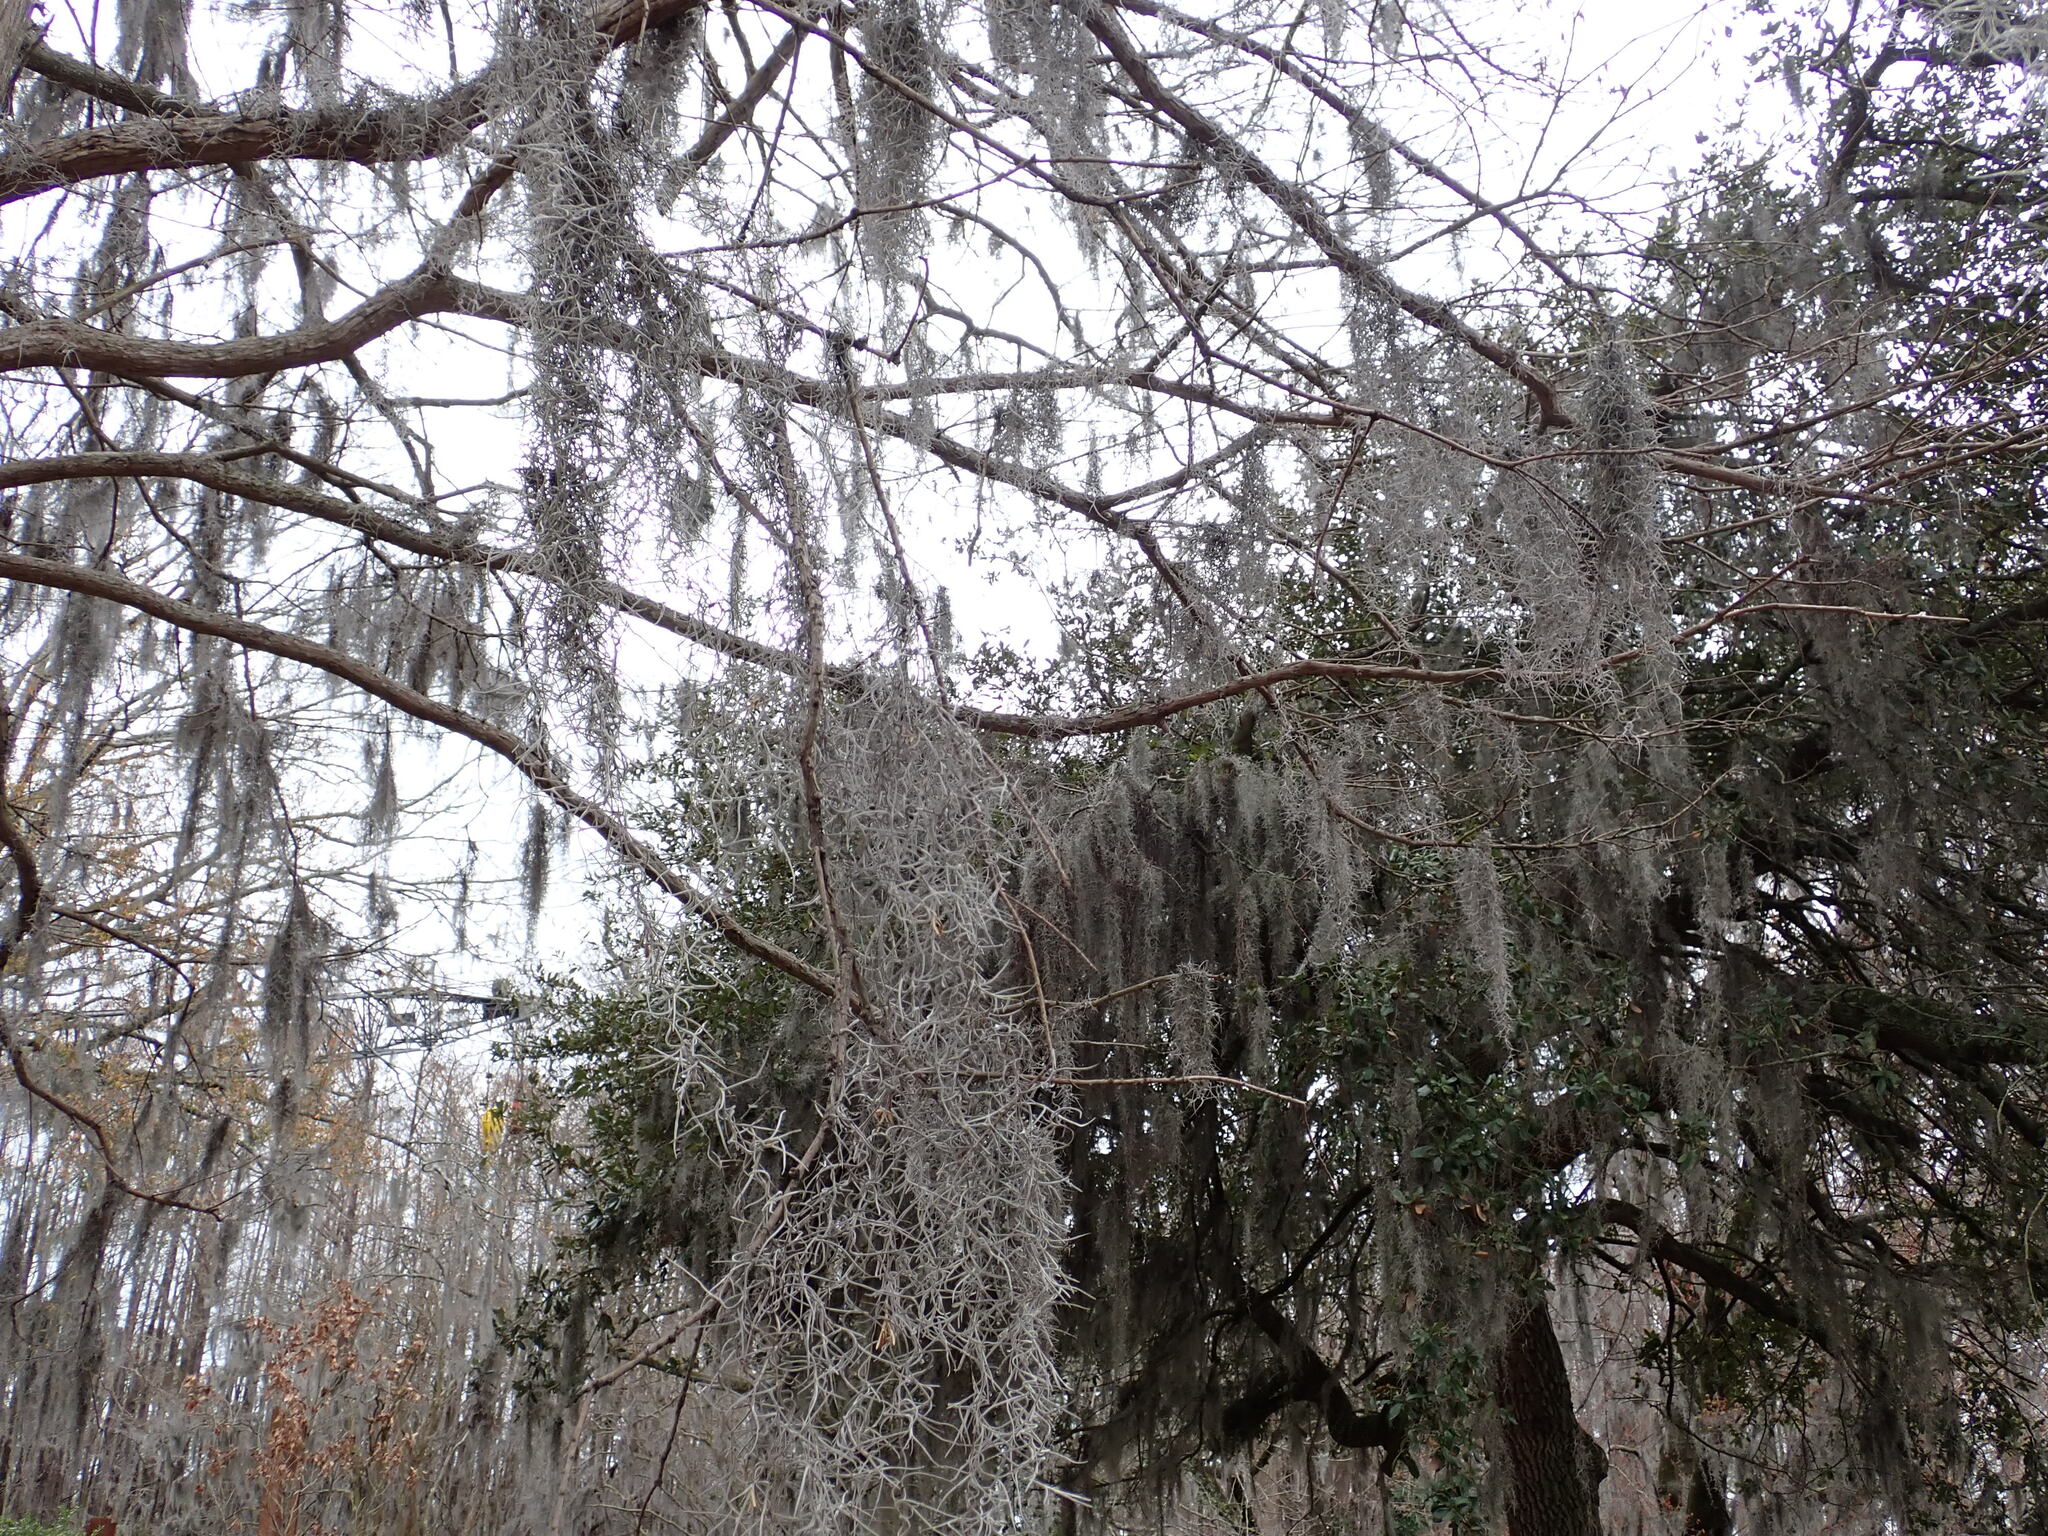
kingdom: Plantae
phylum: Tracheophyta
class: Liliopsida
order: Poales
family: Bromeliaceae
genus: Tillandsia
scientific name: Tillandsia usneoides
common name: Spanish moss
